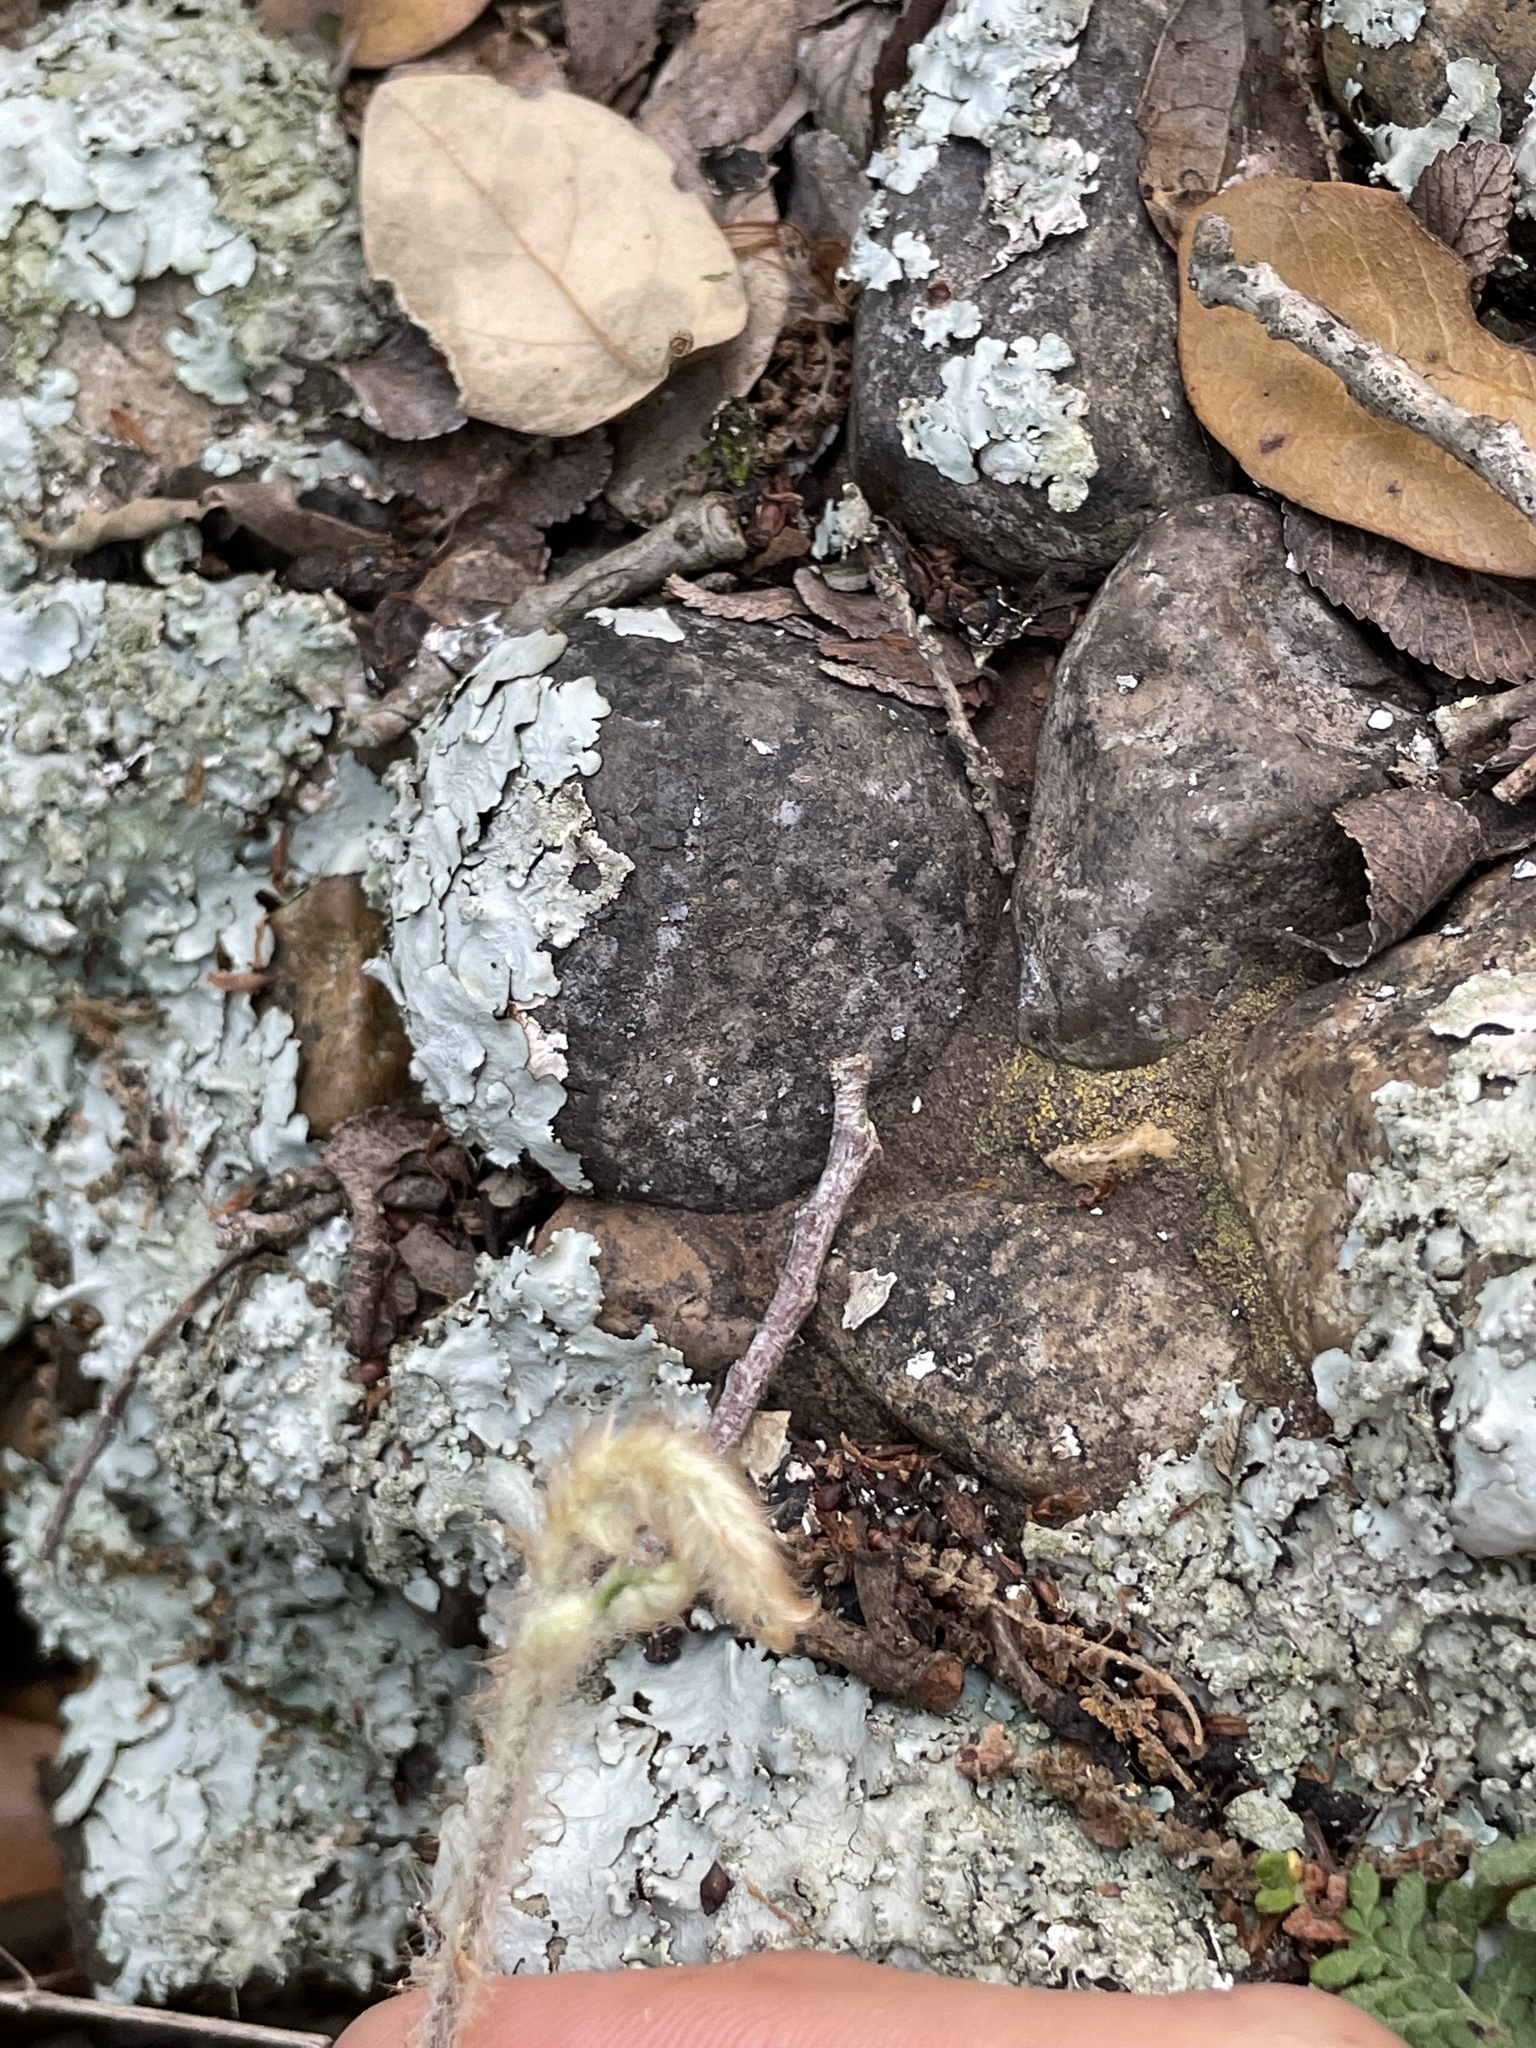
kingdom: Plantae
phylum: Tracheophyta
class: Polypodiopsida
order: Polypodiales
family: Pteridaceae
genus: Myriopteris
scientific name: Myriopteris tomentosa
